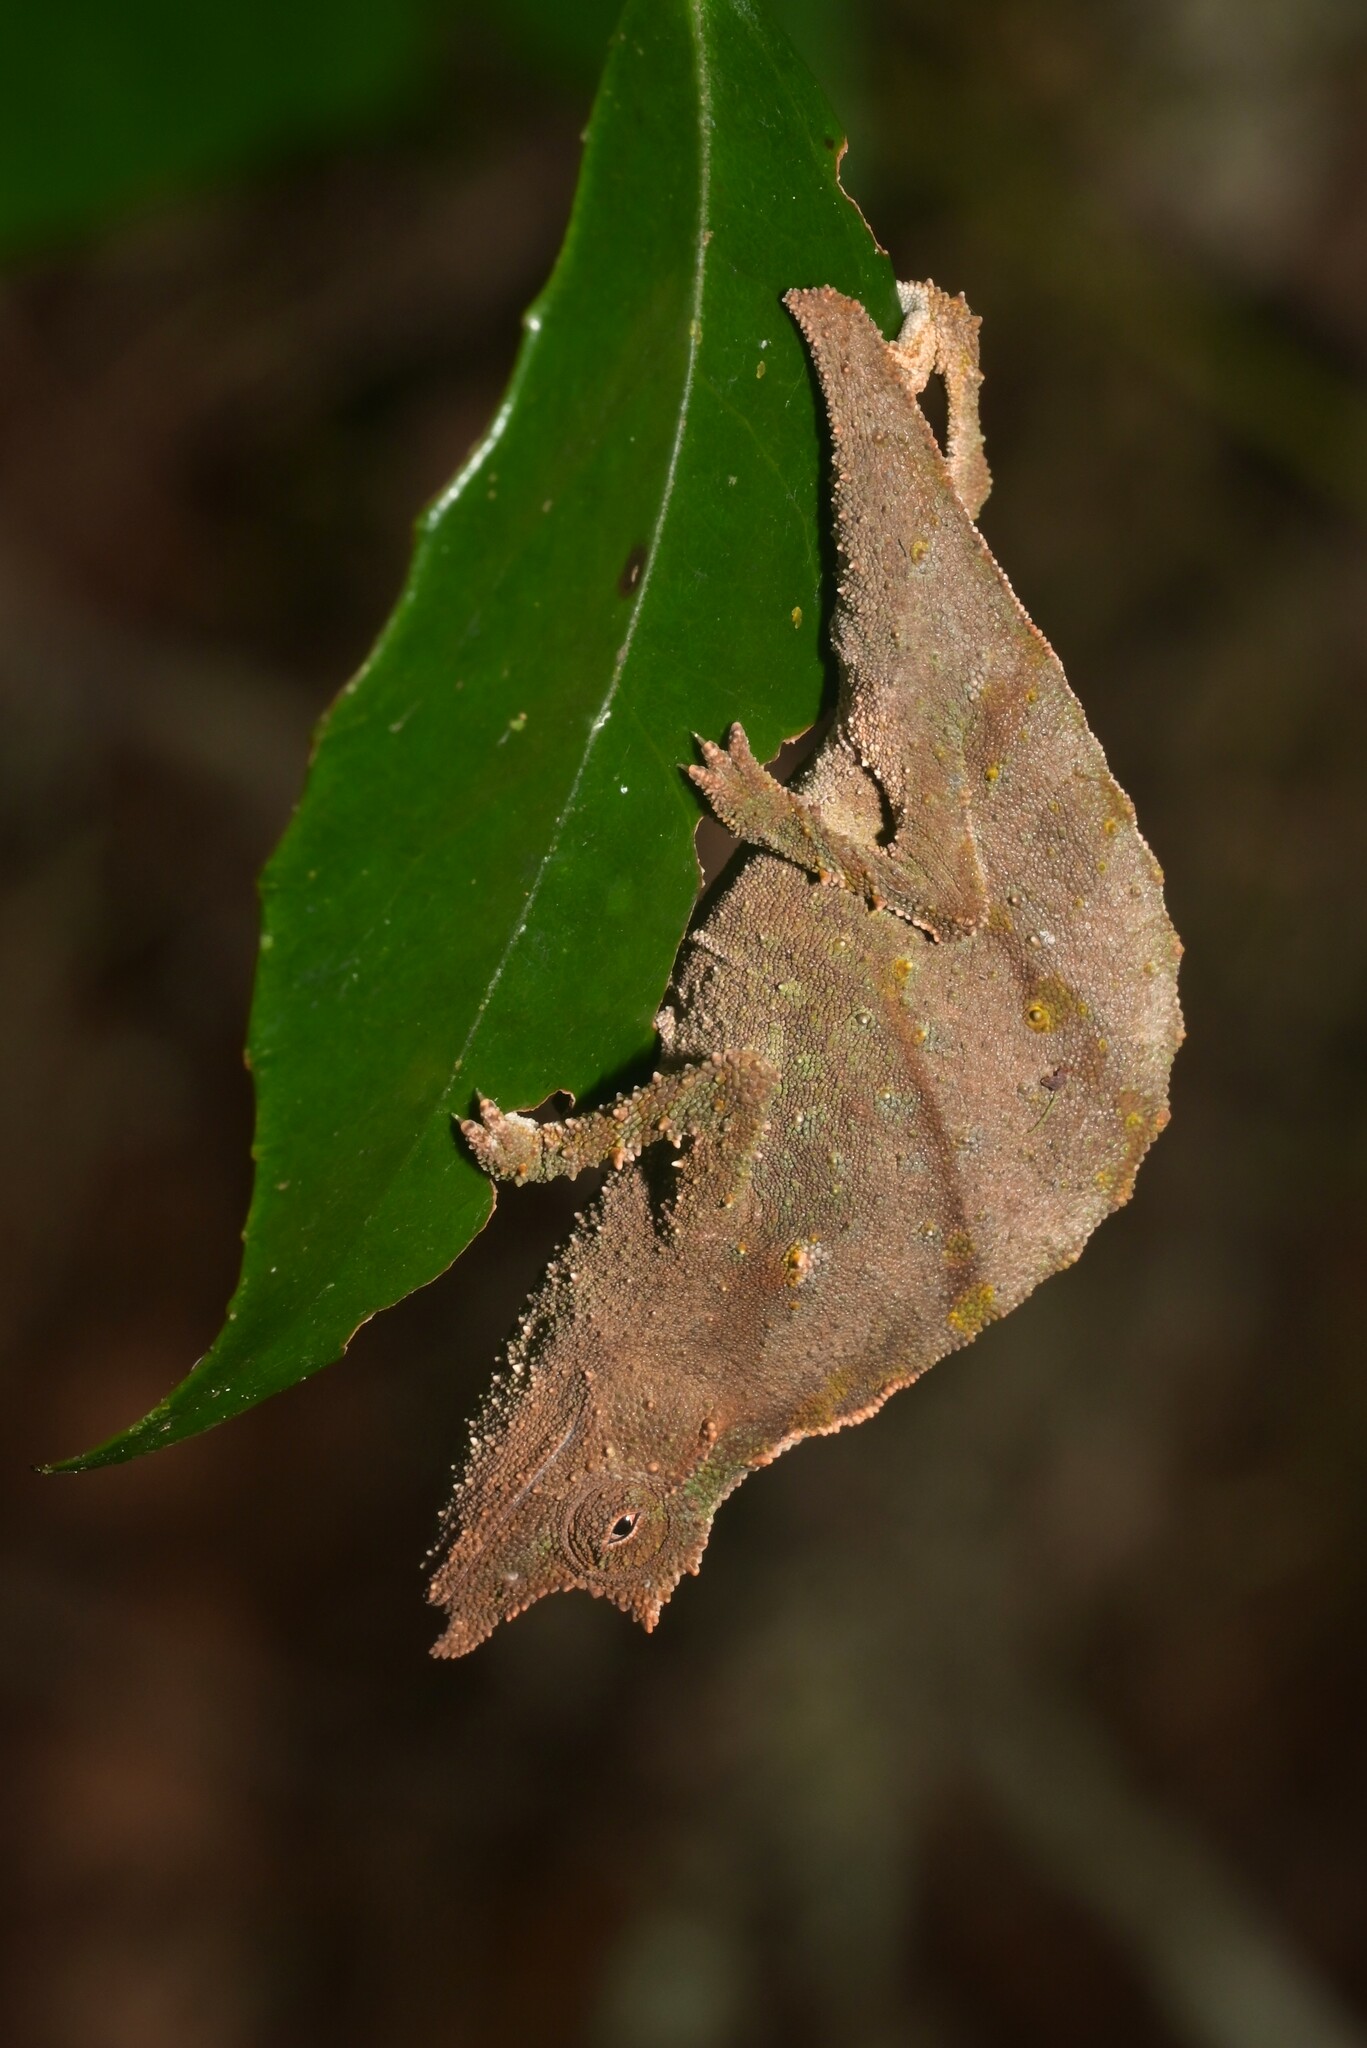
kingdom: Animalia
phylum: Chordata
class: Squamata
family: Chamaeleonidae
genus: Rhampholeon
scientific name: Rhampholeon moyeri
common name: Moyer's pygmy chameleon
